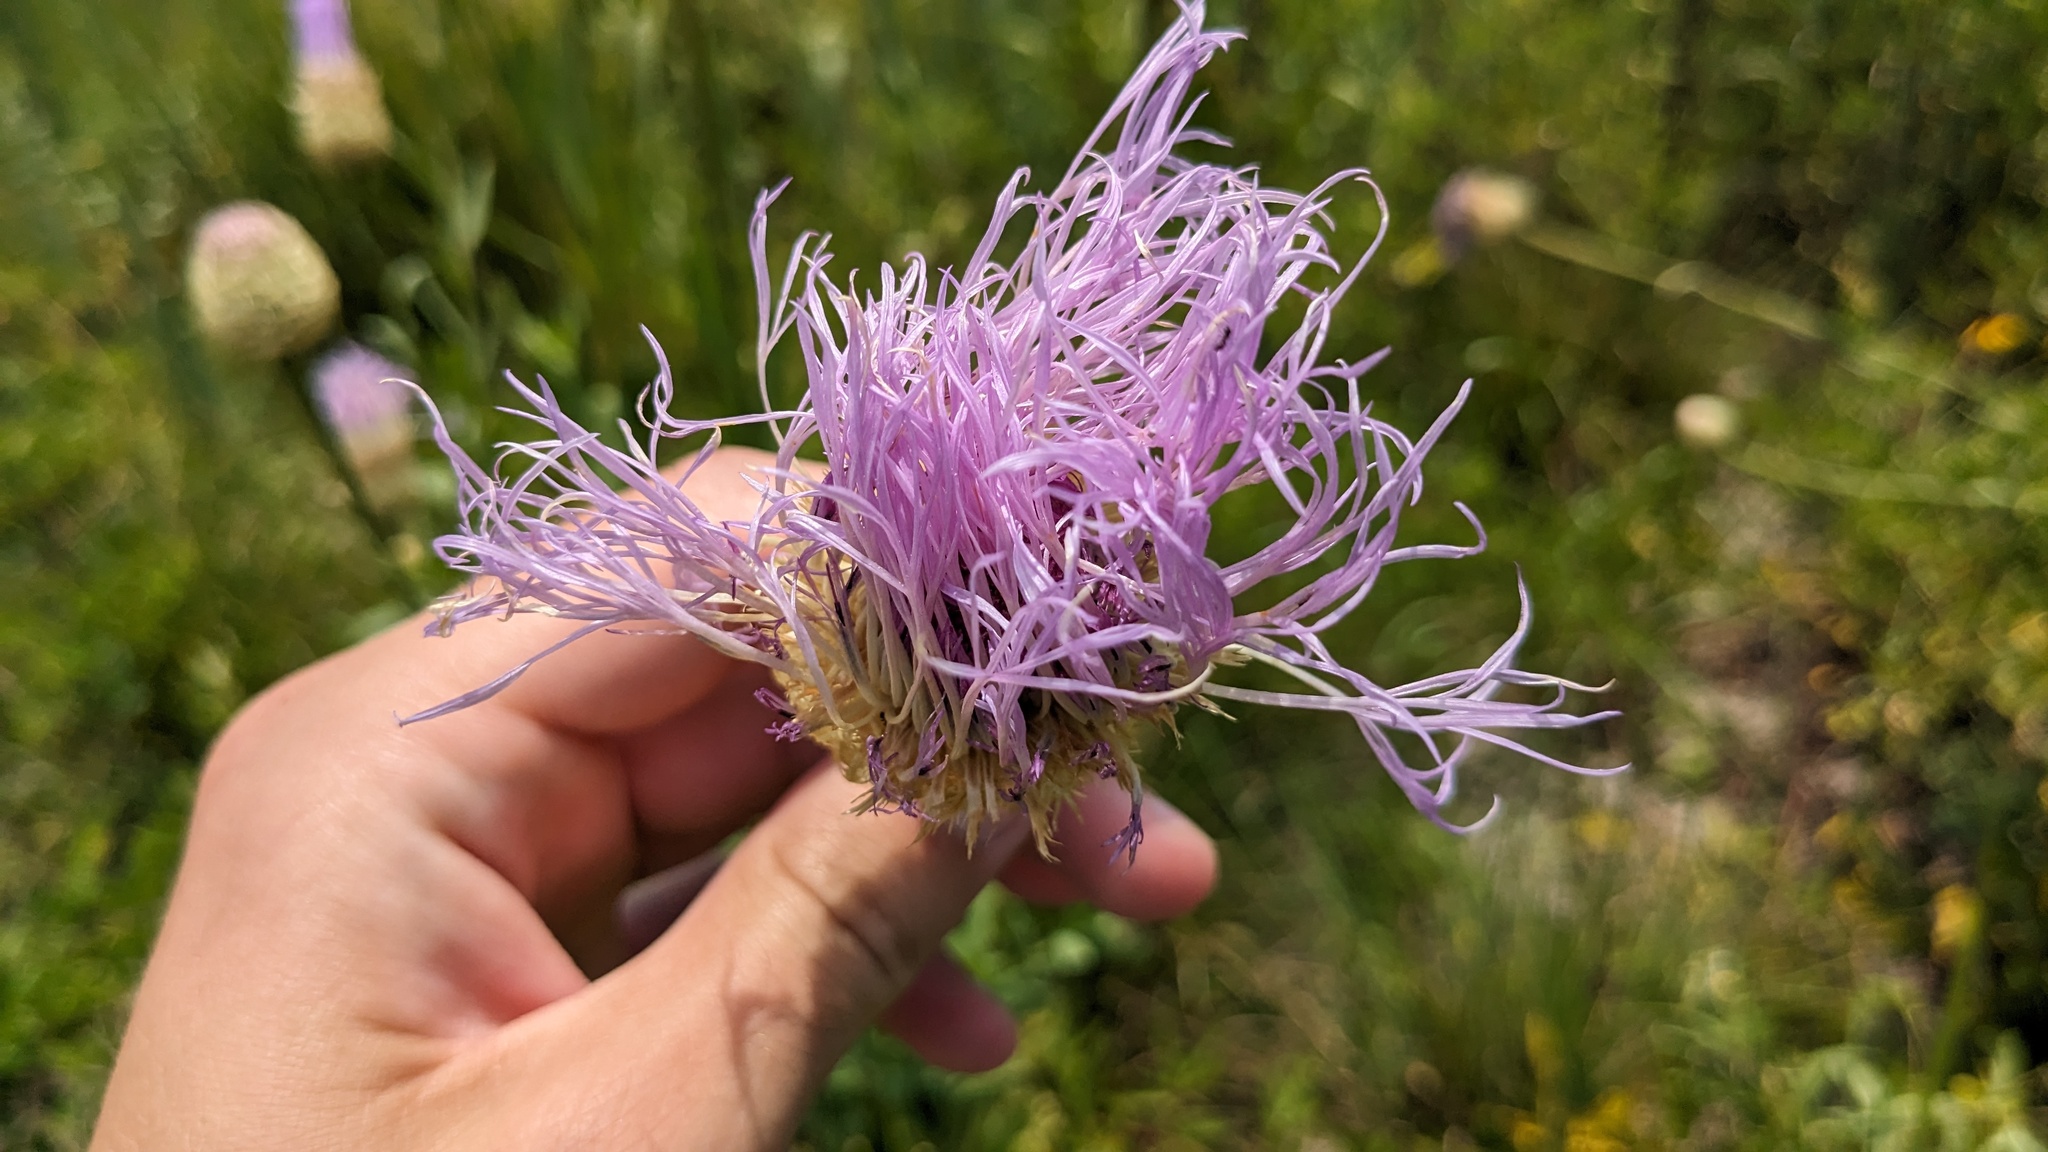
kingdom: Plantae
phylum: Tracheophyta
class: Magnoliopsida
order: Asterales
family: Asteraceae
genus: Plectocephalus
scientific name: Plectocephalus americanus
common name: American basket-flower
